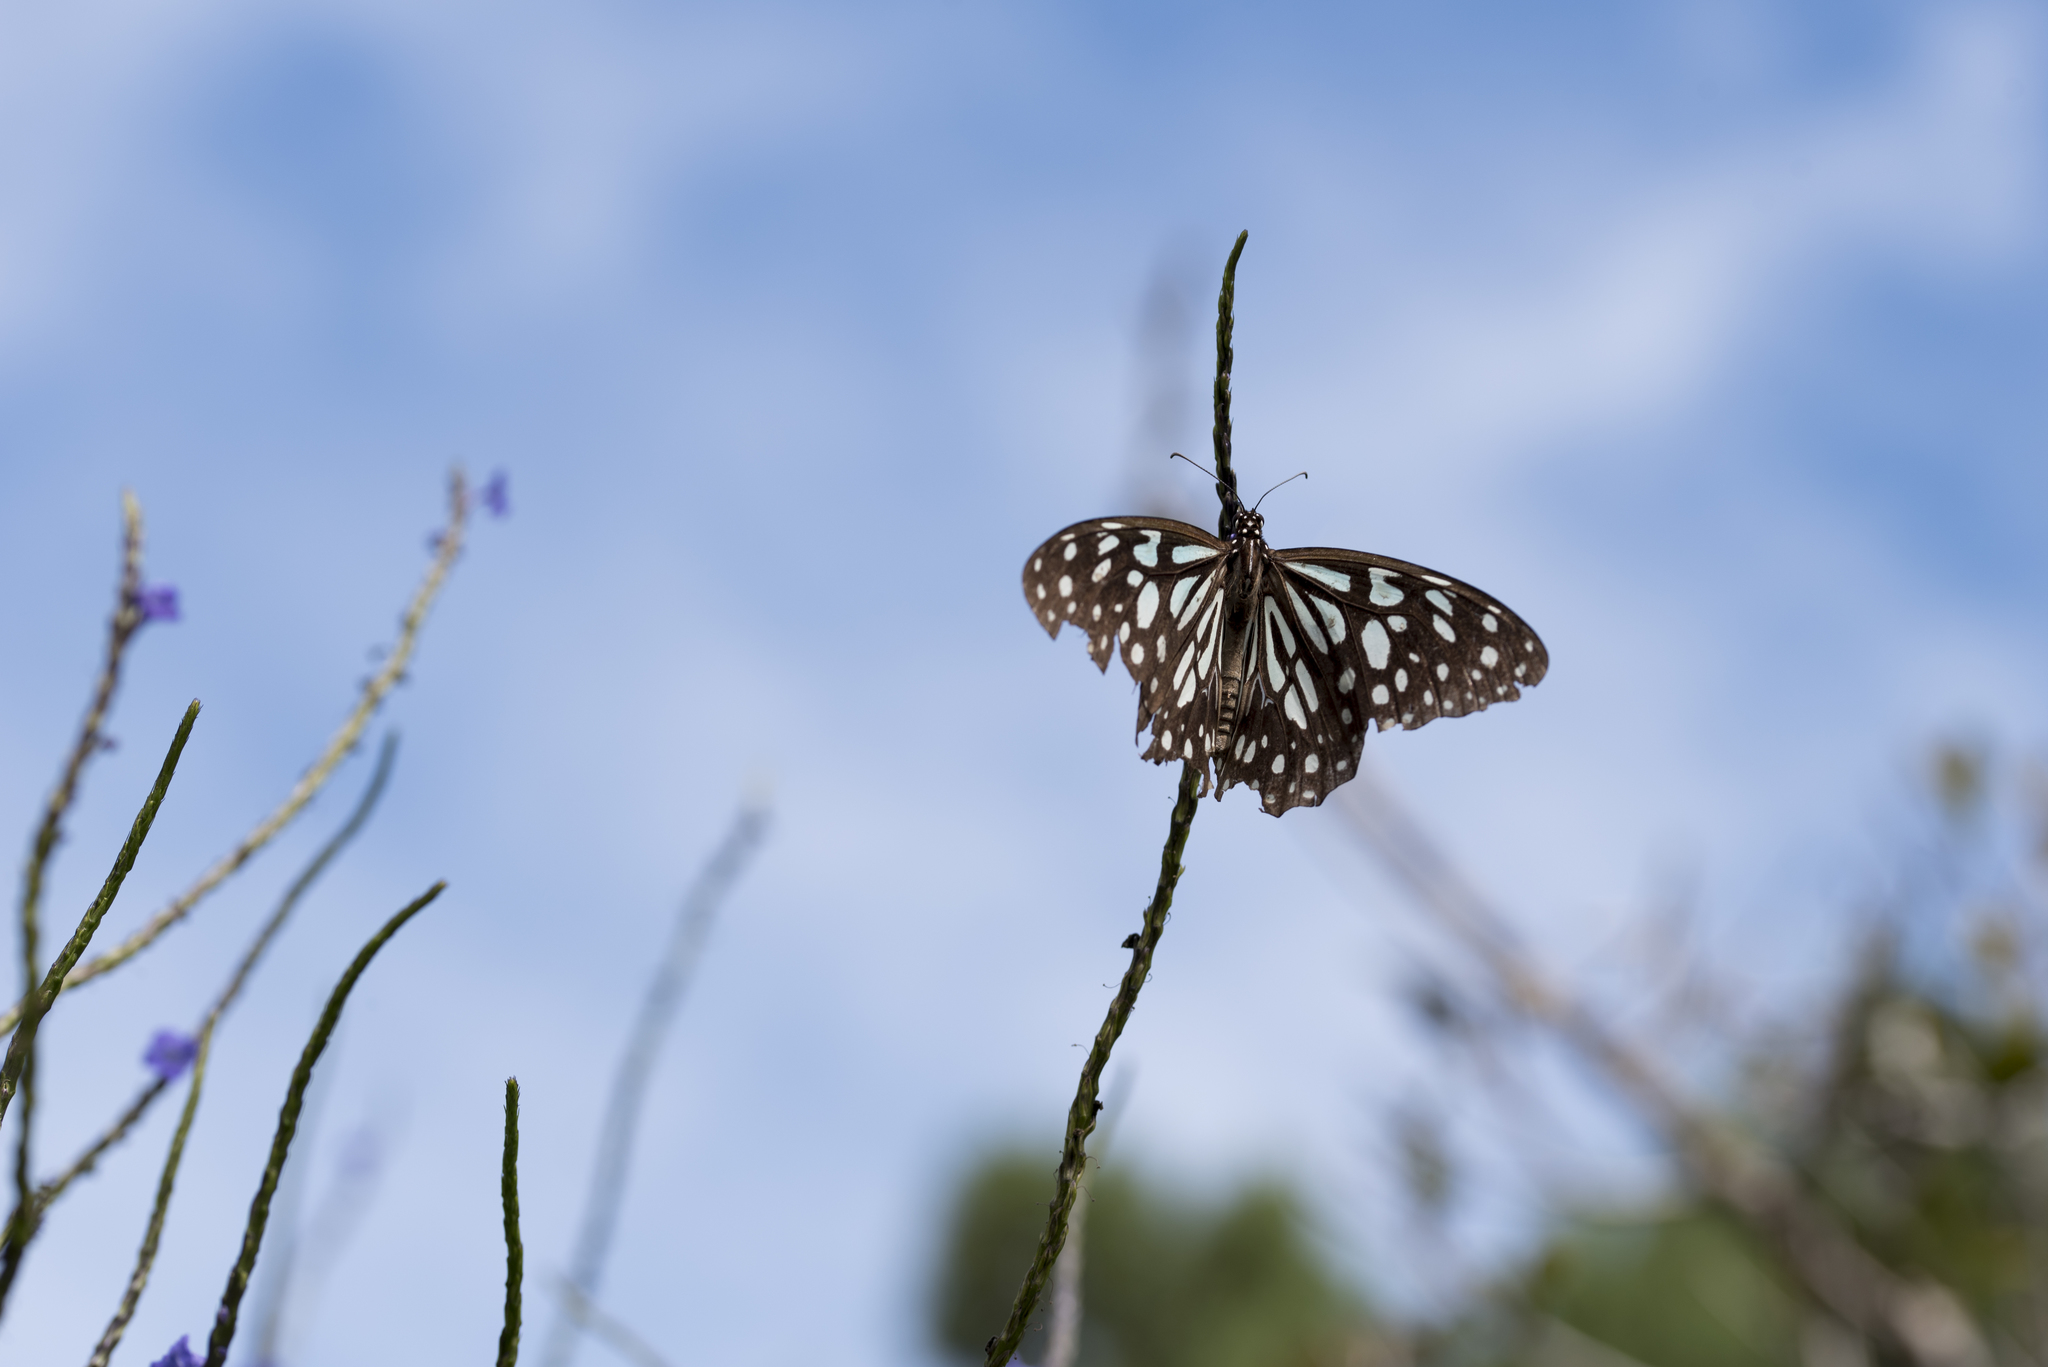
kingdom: Animalia
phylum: Arthropoda
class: Insecta
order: Lepidoptera
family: Nymphalidae
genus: Tirumala
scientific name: Tirumala limniace
